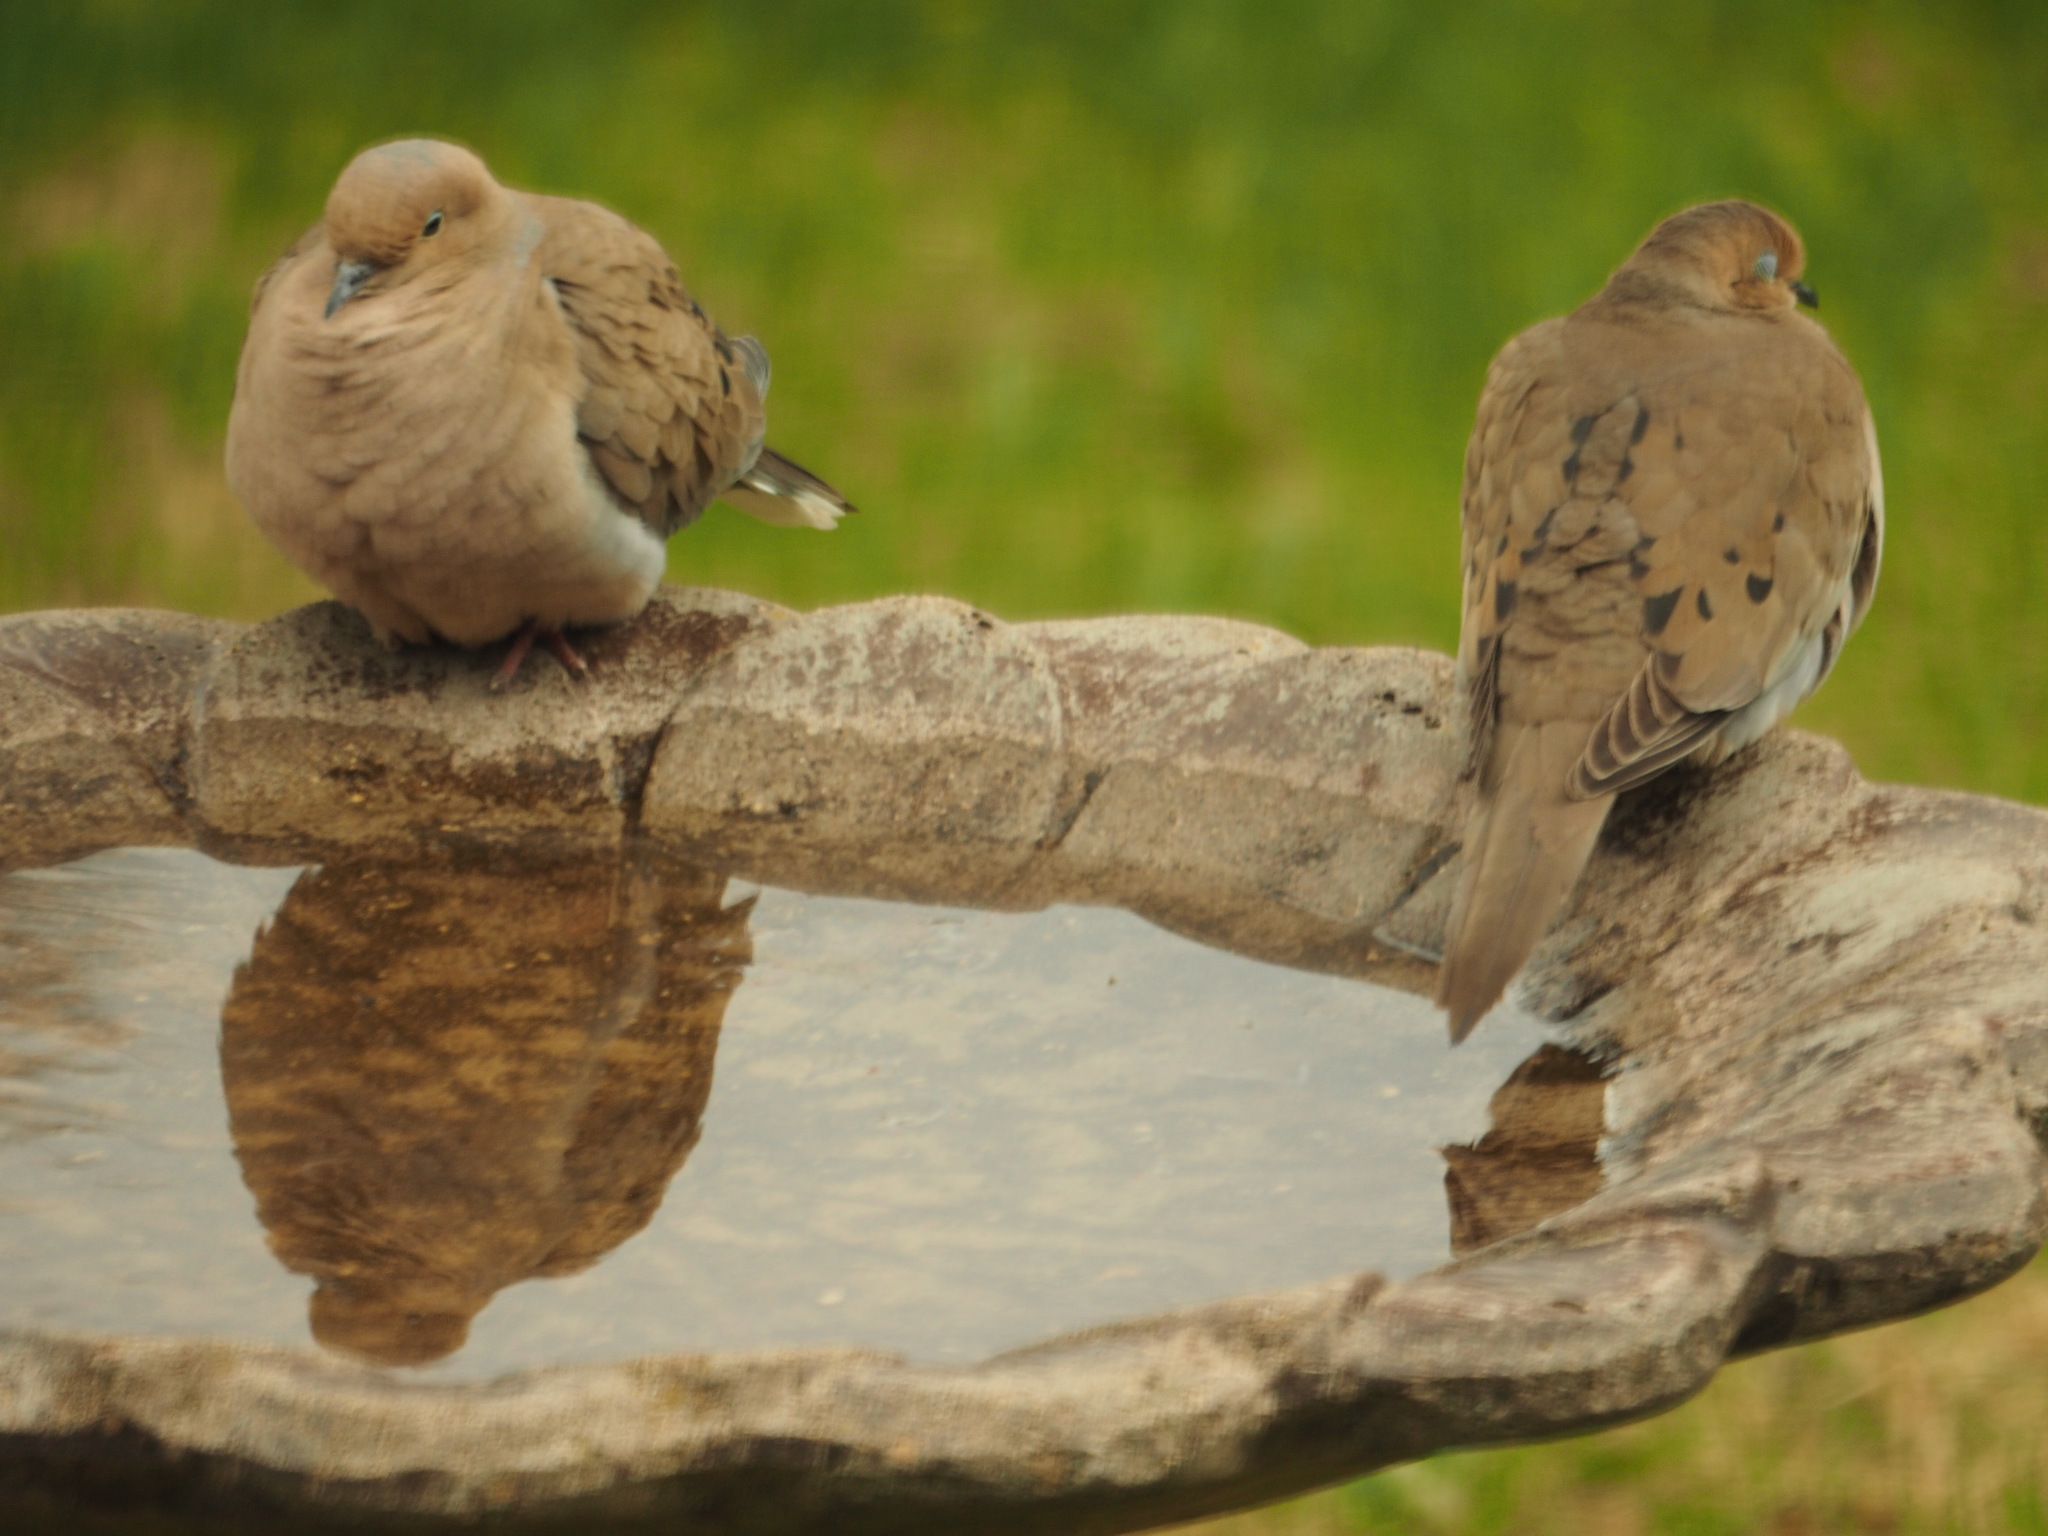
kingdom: Animalia
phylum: Chordata
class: Aves
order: Columbiformes
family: Columbidae
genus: Zenaida
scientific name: Zenaida macroura
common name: Mourning dove
